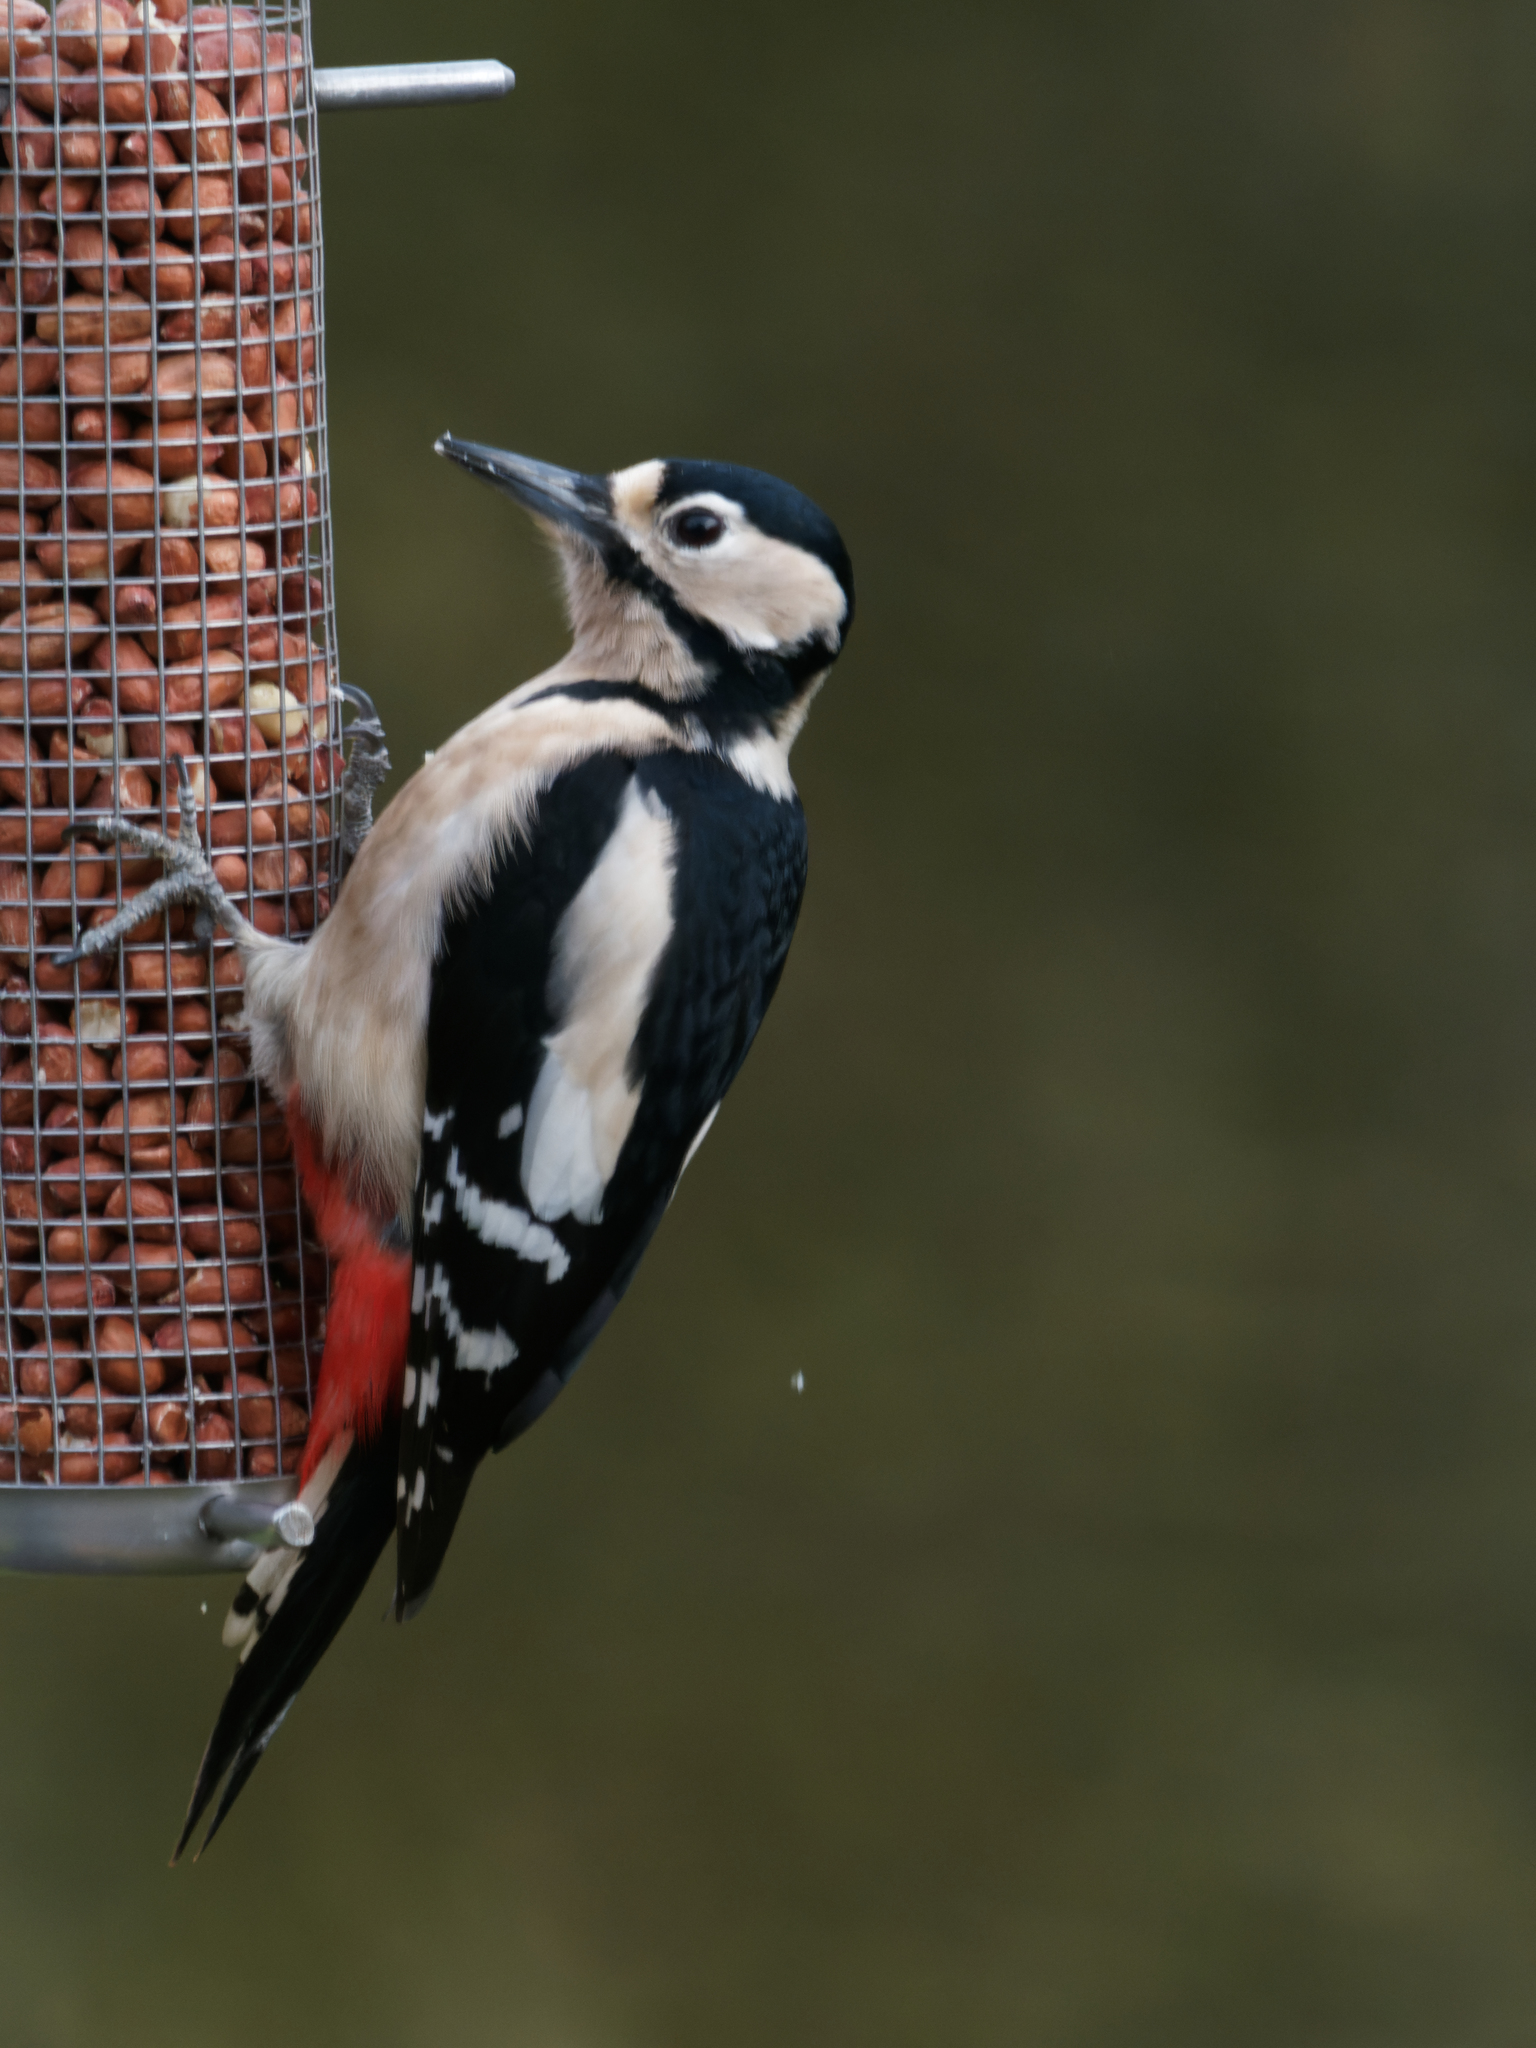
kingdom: Animalia
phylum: Chordata
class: Aves
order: Piciformes
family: Picidae
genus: Dendrocopos
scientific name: Dendrocopos major
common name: Great spotted woodpecker
